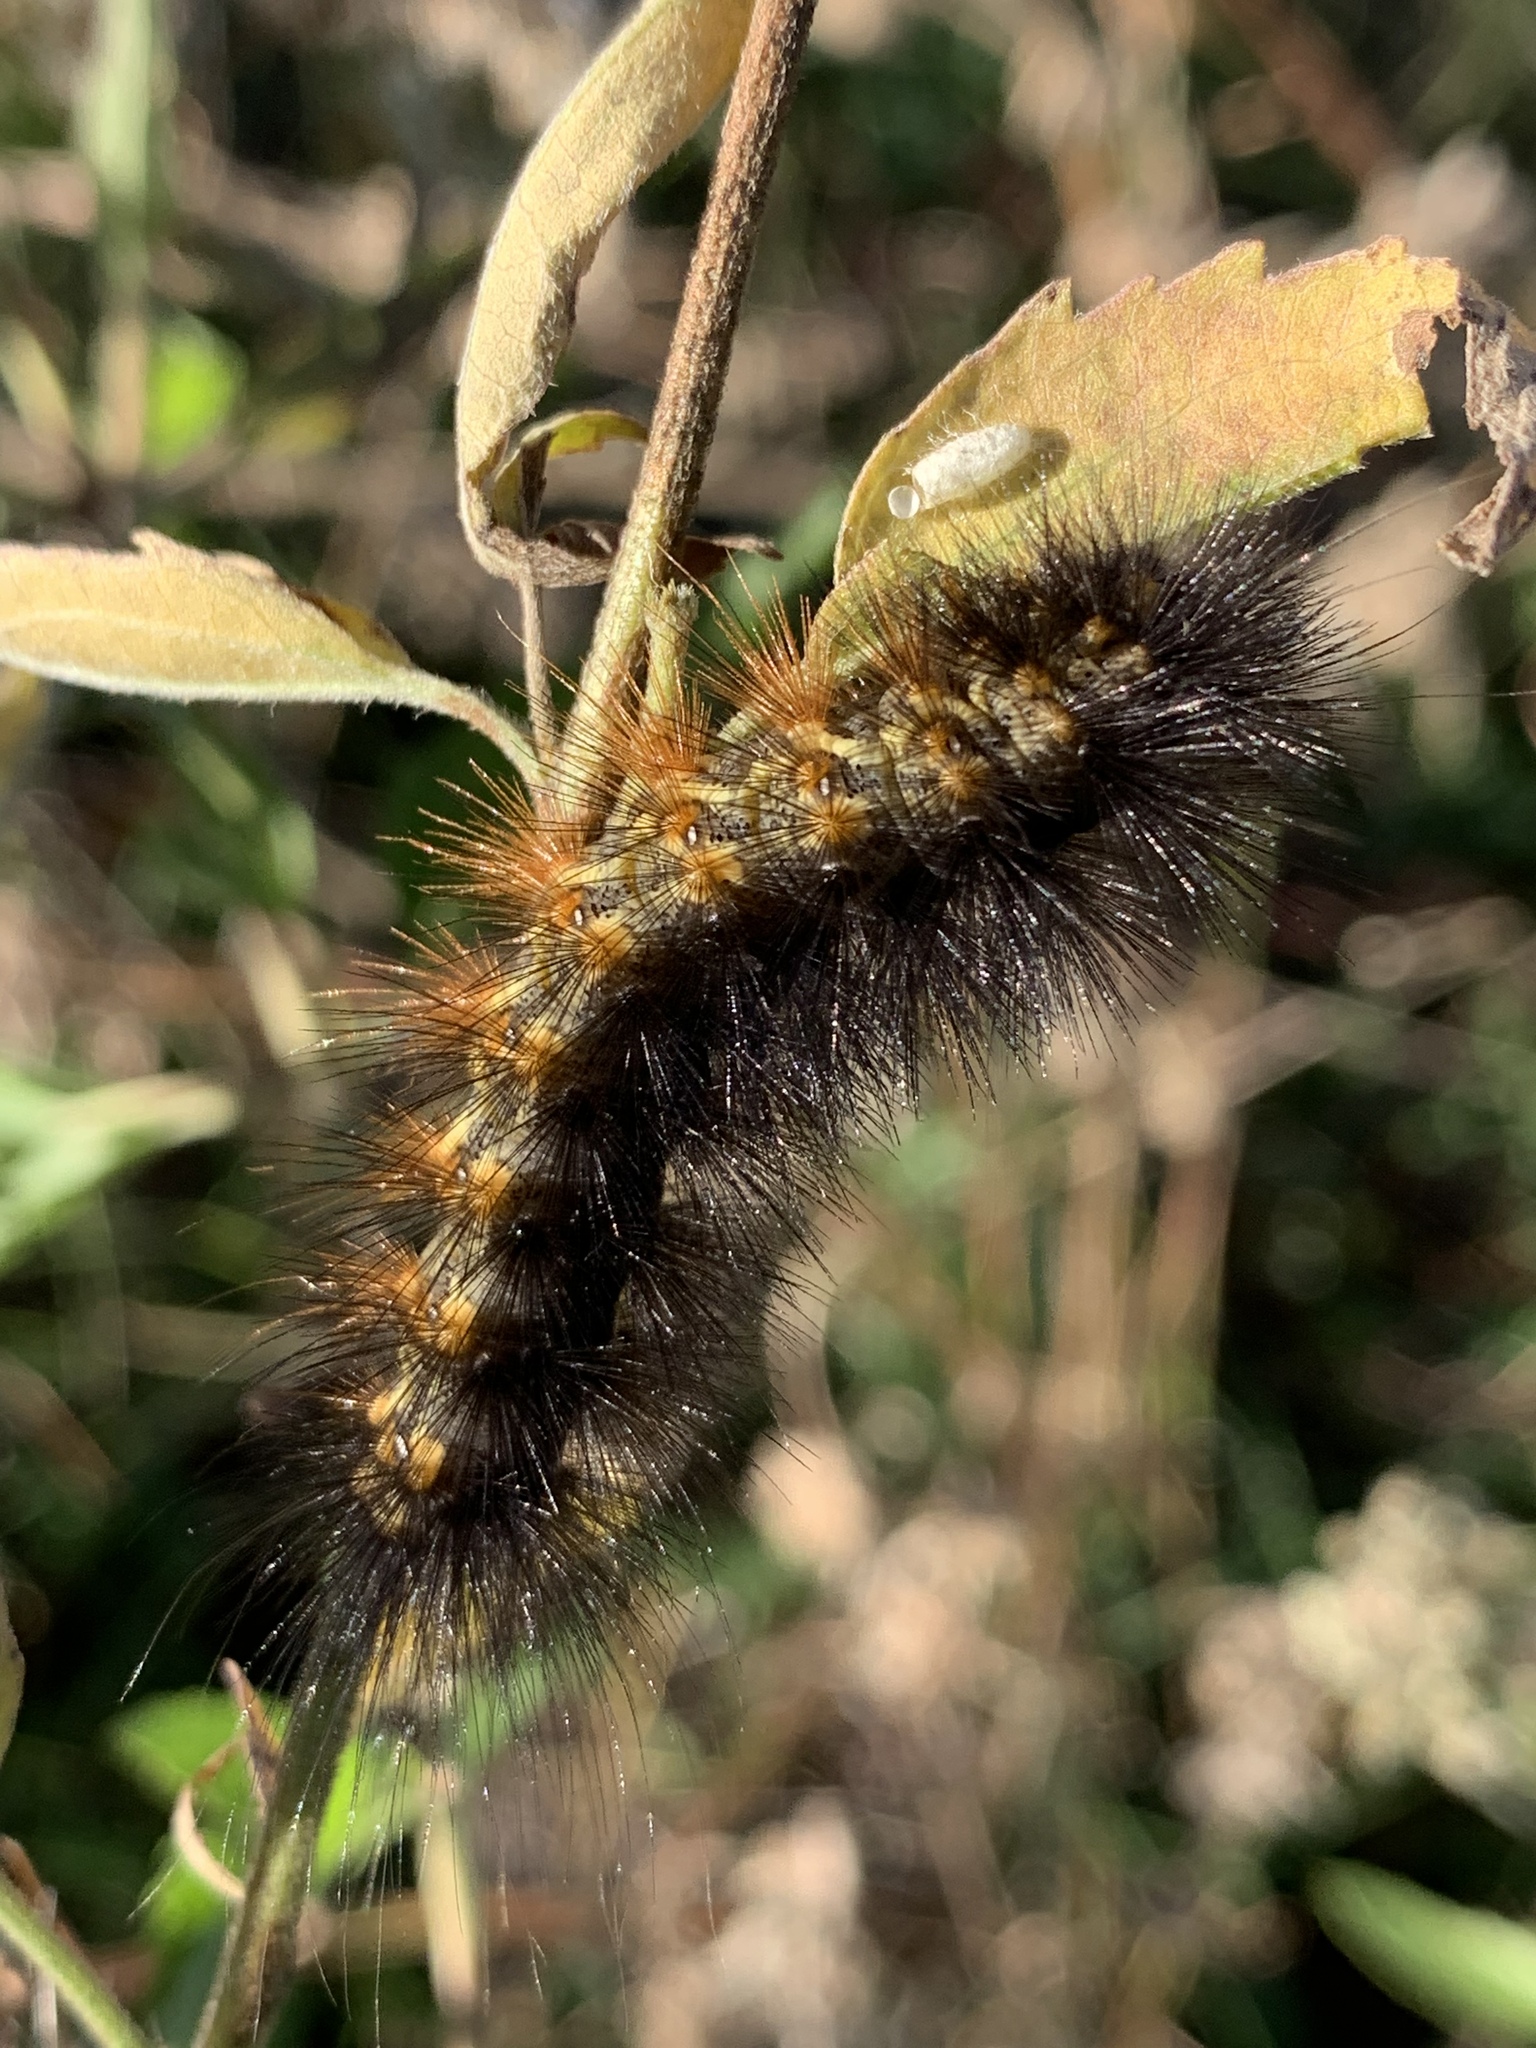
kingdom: Animalia
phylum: Arthropoda
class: Insecta
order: Lepidoptera
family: Erebidae
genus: Estigmene
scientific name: Estigmene acrea
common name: Salt marsh moth
